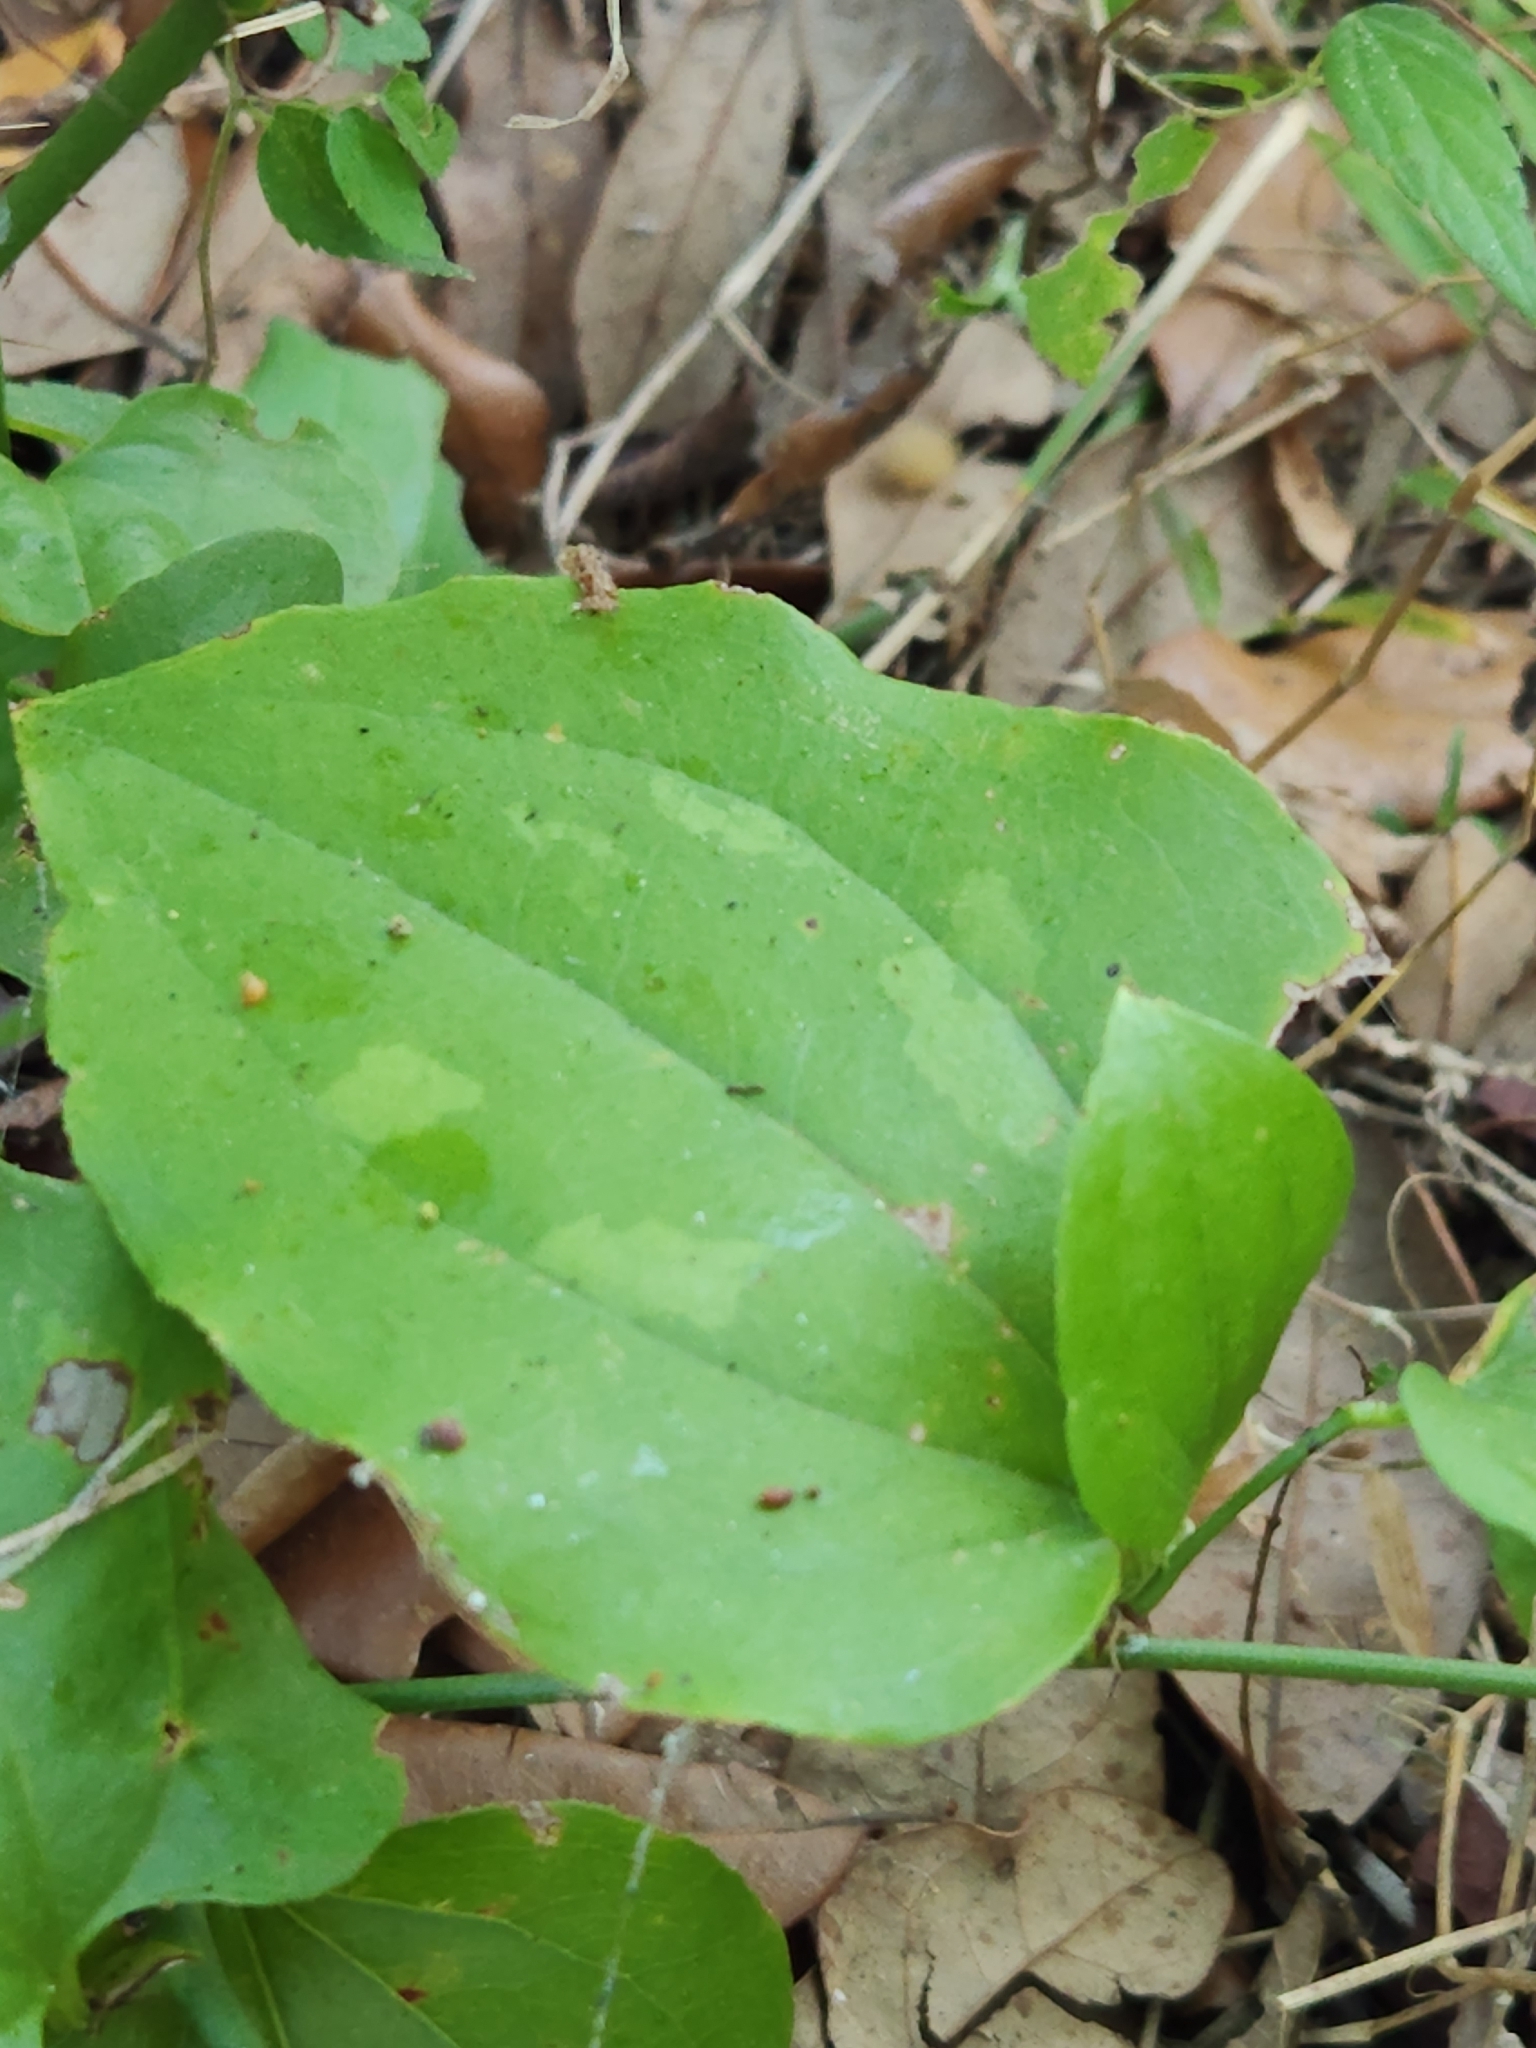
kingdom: Plantae
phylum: Tracheophyta
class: Liliopsida
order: Liliales
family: Smilacaceae
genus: Smilax
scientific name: Smilax tamnoides
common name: Hellfetter
